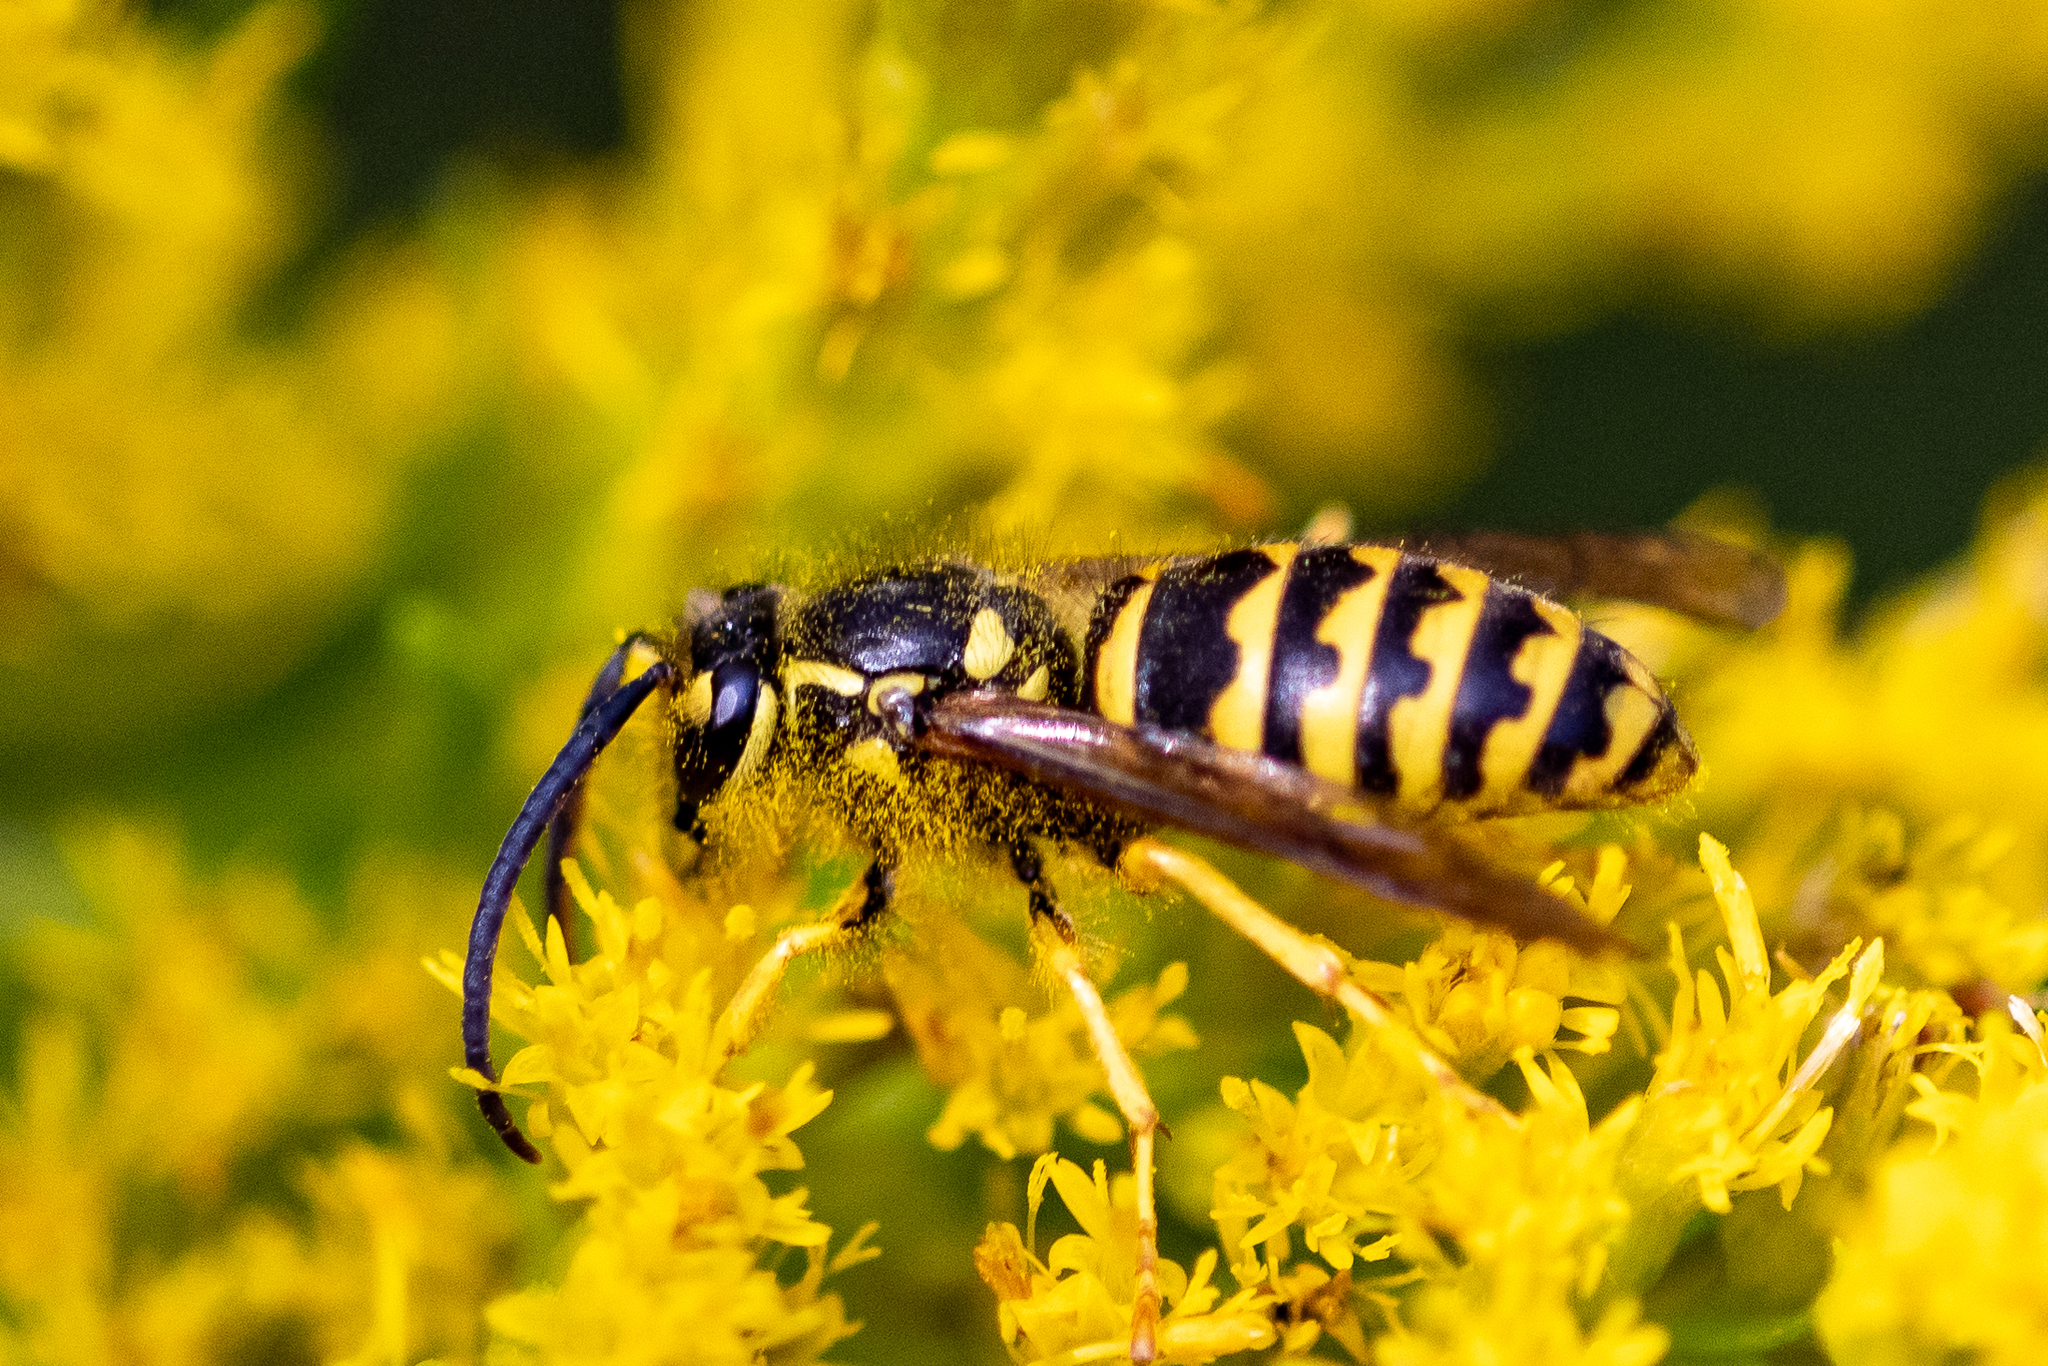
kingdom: Animalia
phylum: Arthropoda
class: Insecta
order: Hymenoptera
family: Vespidae
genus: Dolichovespula
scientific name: Dolichovespula arenaria
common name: Aerial yellowjacket
